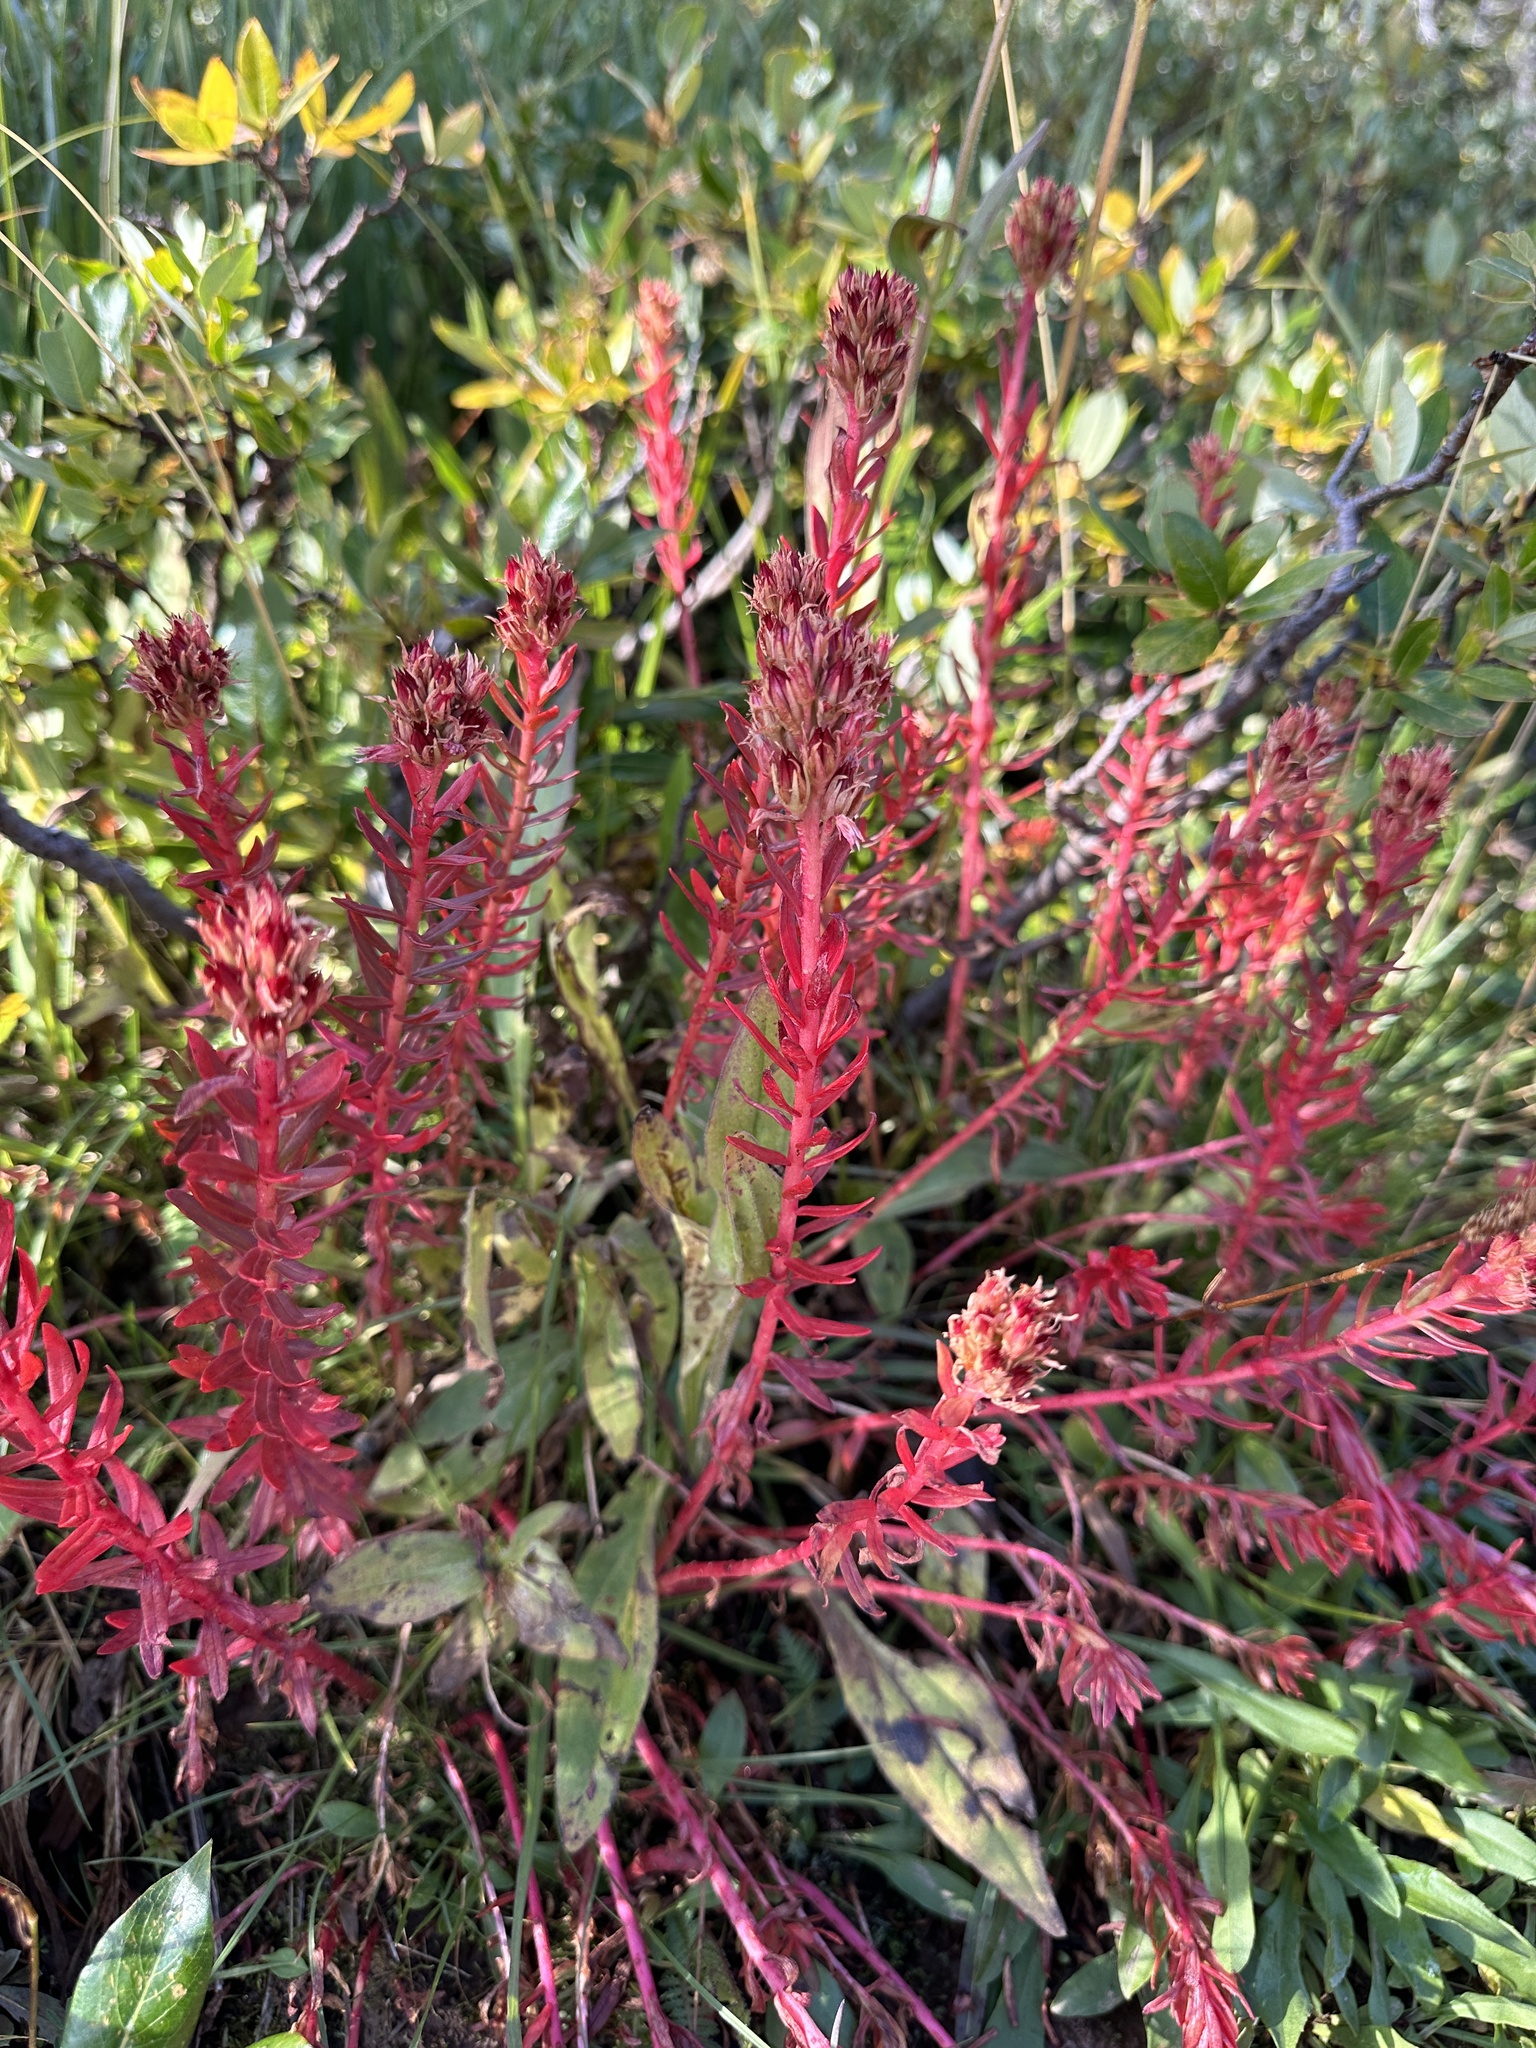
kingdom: Plantae
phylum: Tracheophyta
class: Magnoliopsida
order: Saxifragales
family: Crassulaceae
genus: Rhodiola
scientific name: Rhodiola rhodantha
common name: Red orpine
